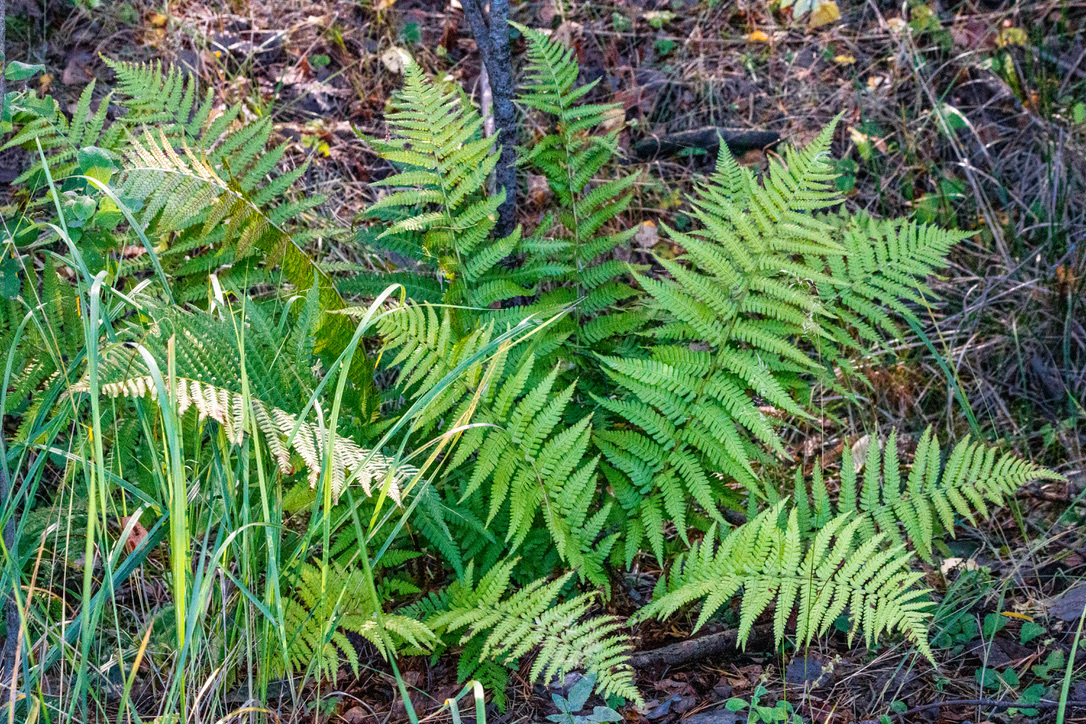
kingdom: Plantae
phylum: Tracheophyta
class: Polypodiopsida
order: Polypodiales
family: Dryopteridaceae
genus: Dryopteris
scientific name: Dryopteris filix-mas
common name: Male fern
